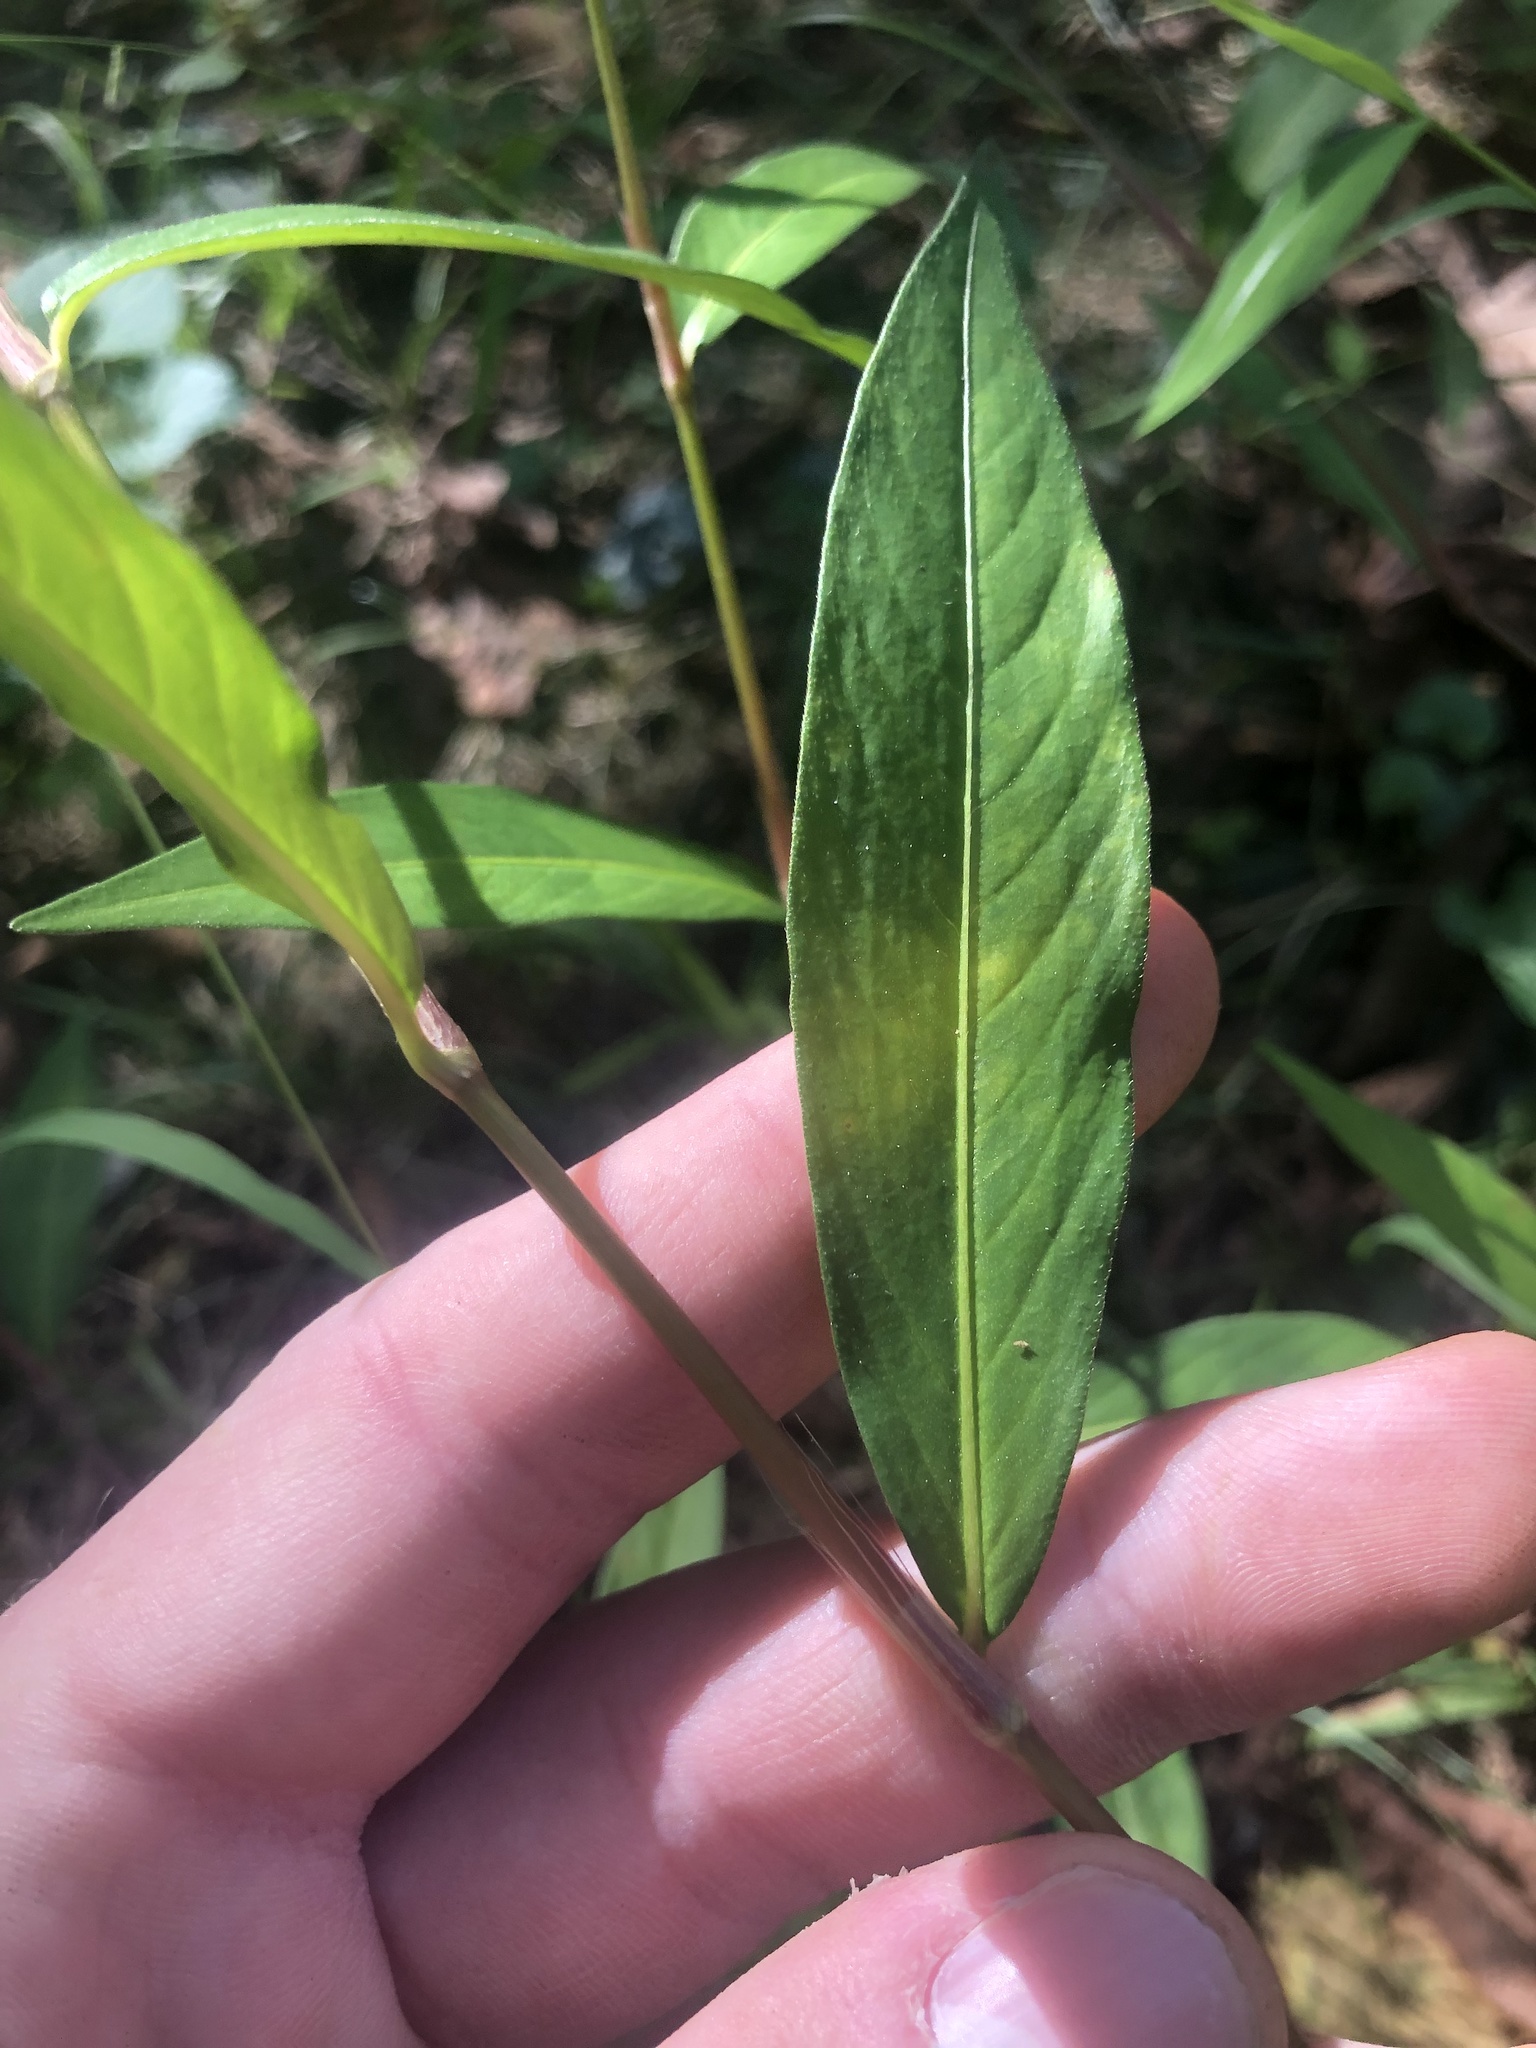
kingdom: Plantae
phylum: Tracheophyta
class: Magnoliopsida
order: Caryophyllales
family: Polygonaceae
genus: Persicaria
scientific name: Persicaria longiseta
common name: Bristly lady's-thumb
